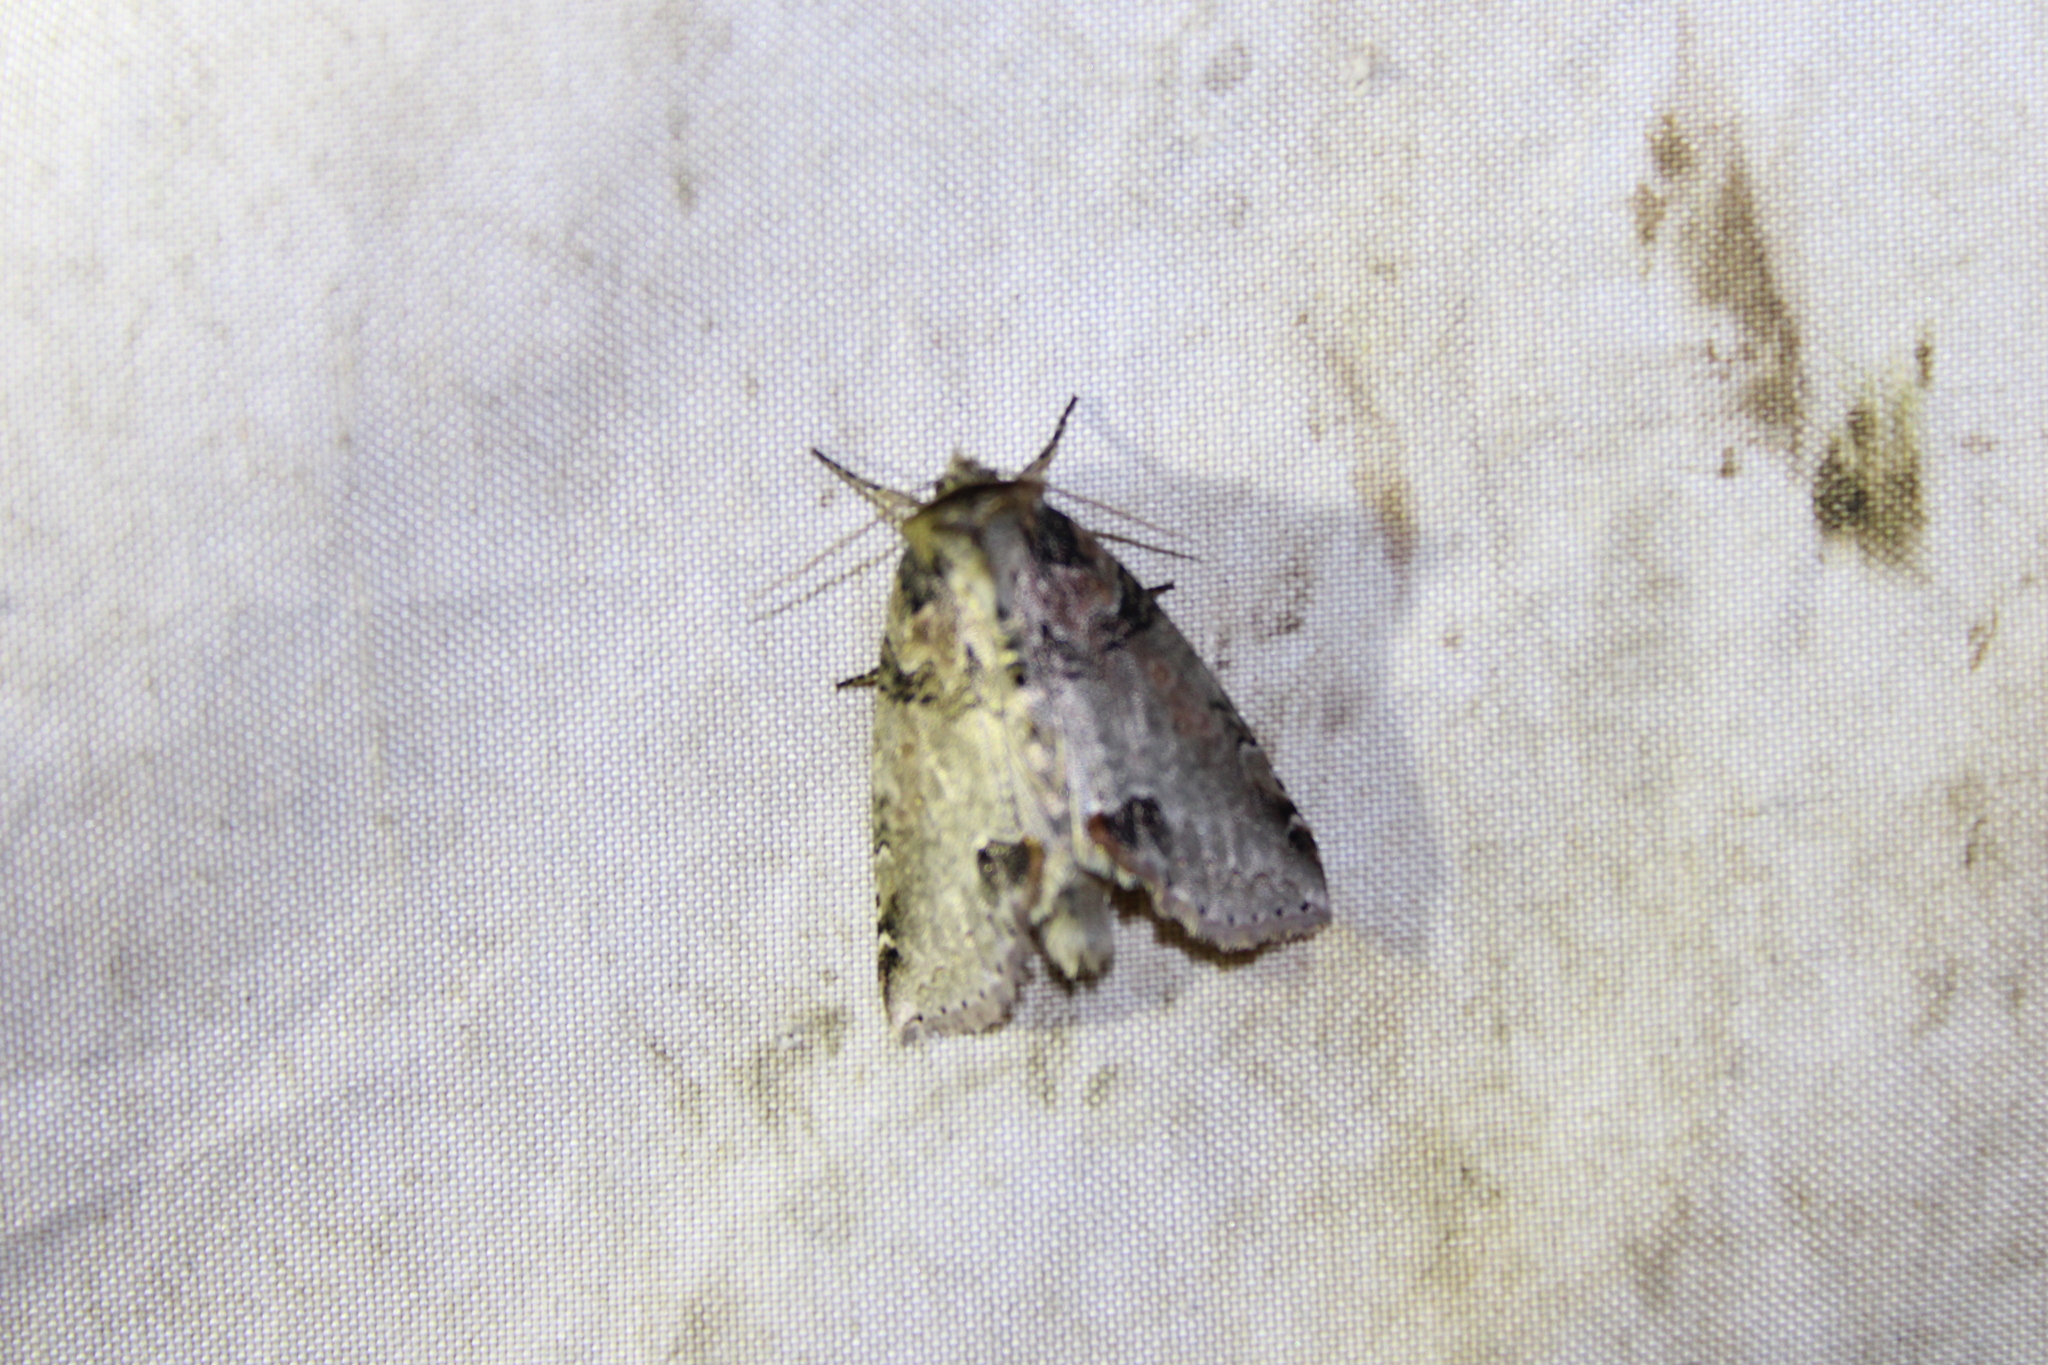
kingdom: Animalia
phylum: Arthropoda
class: Insecta
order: Lepidoptera
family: Drepanidae
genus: Pseudothyatira
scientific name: Pseudothyatira cymatophoroides
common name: Tufted thyatirid moth
